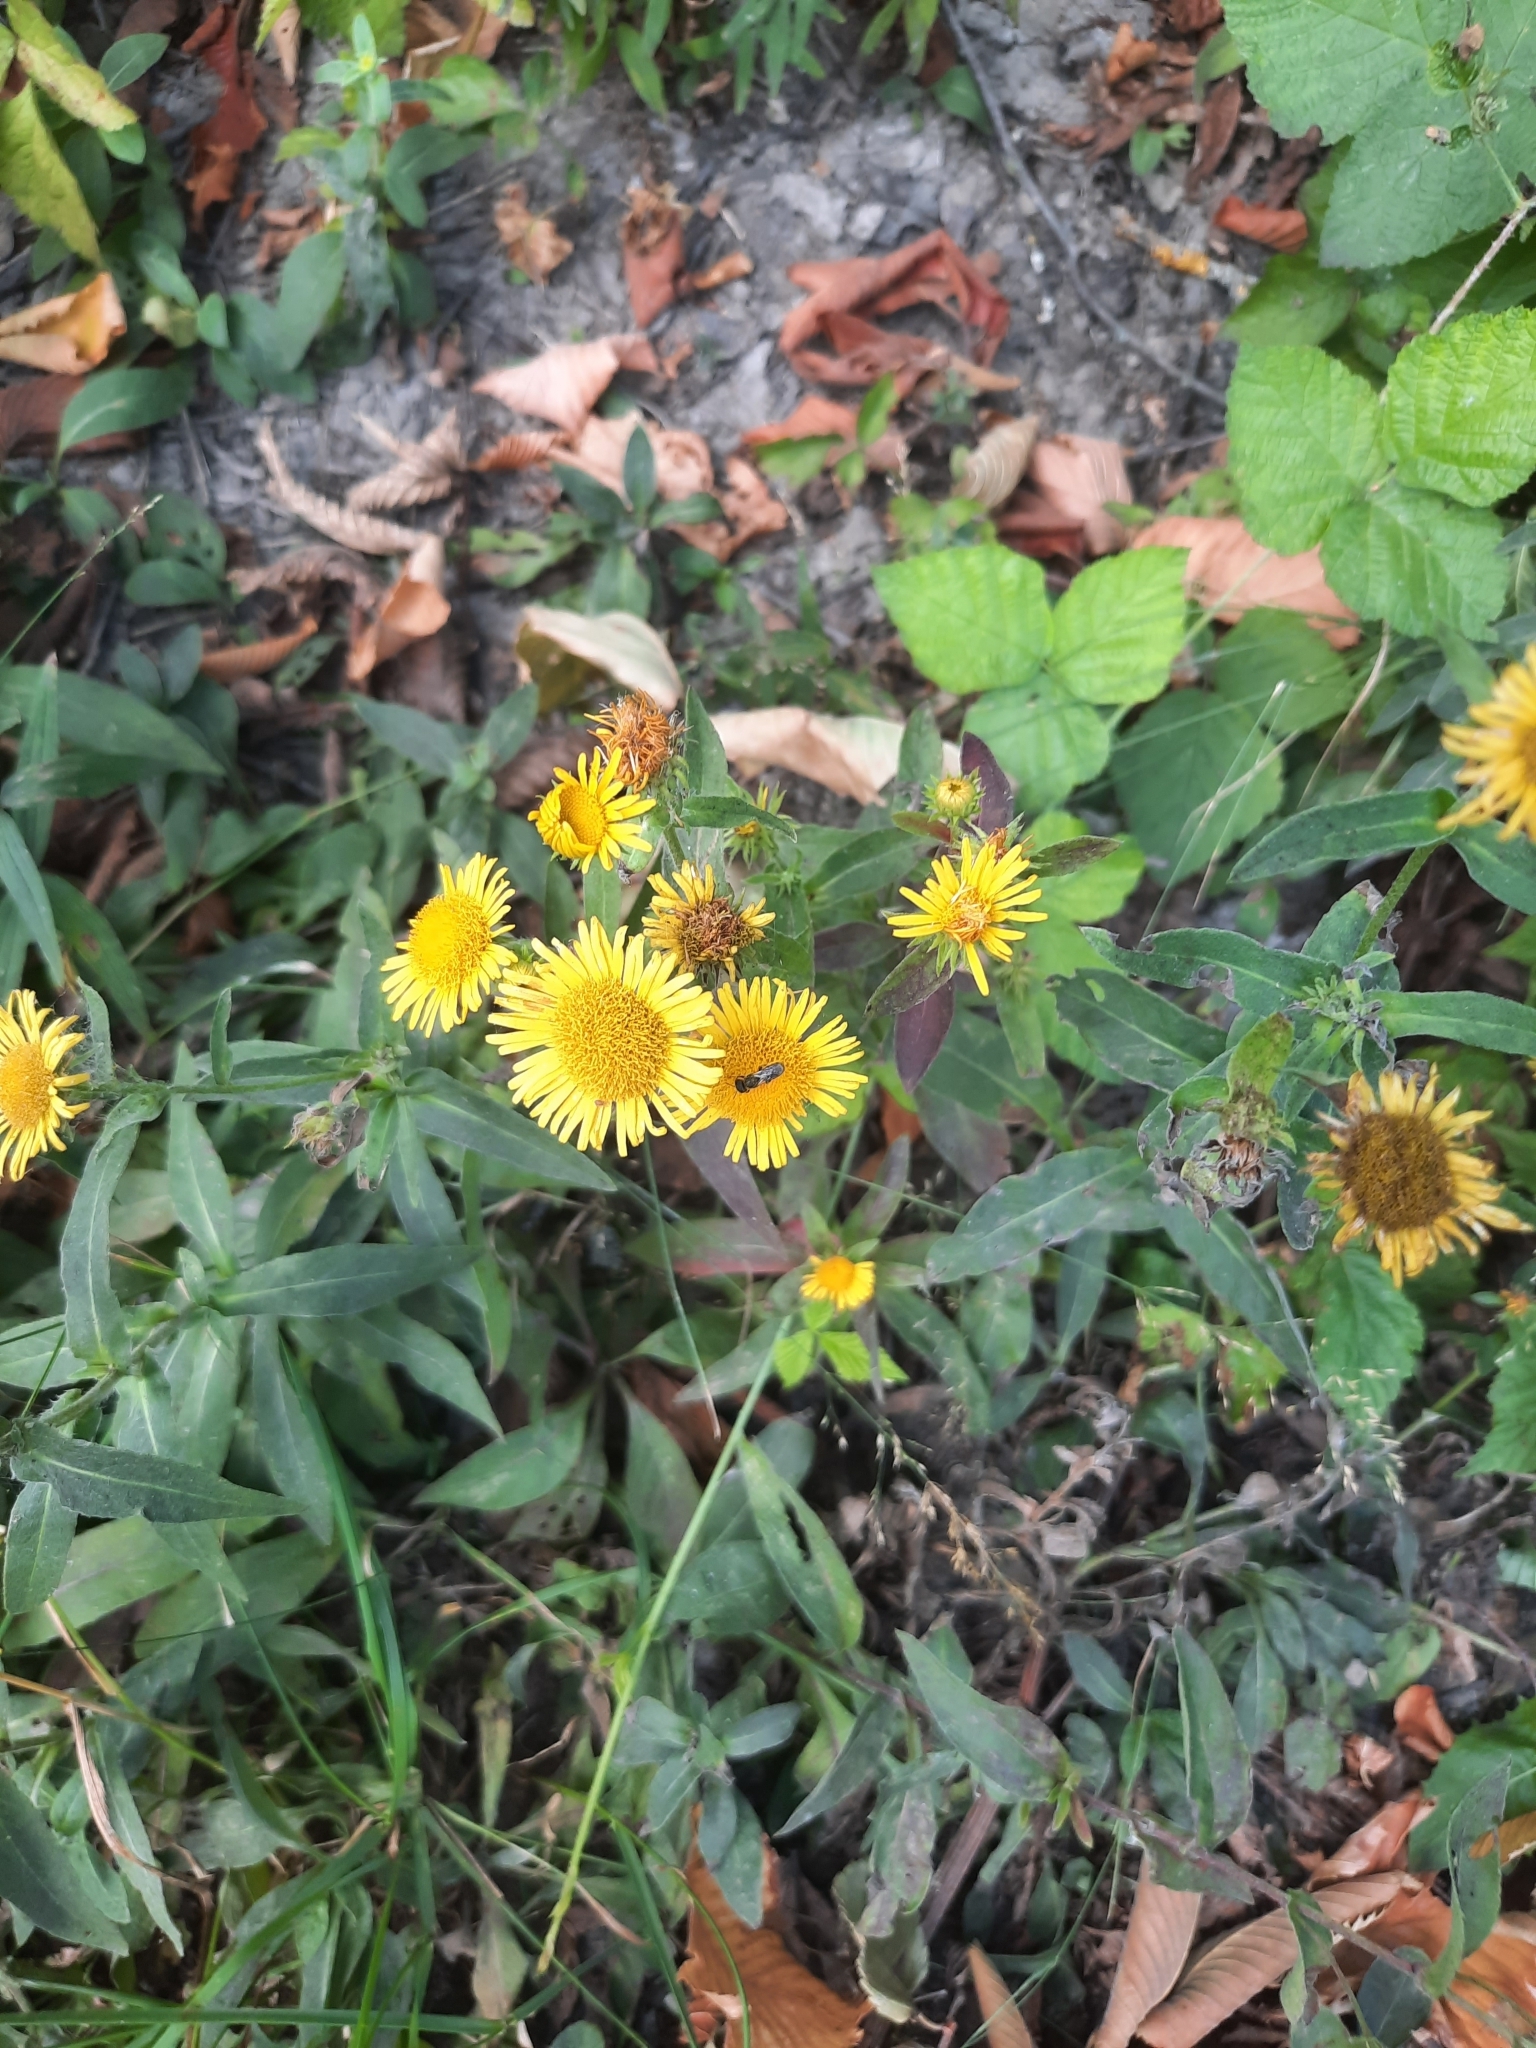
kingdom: Plantae
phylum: Tracheophyta
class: Magnoliopsida
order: Asterales
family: Asteraceae
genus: Pentanema
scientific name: Pentanema britannicum
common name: British elecampane
